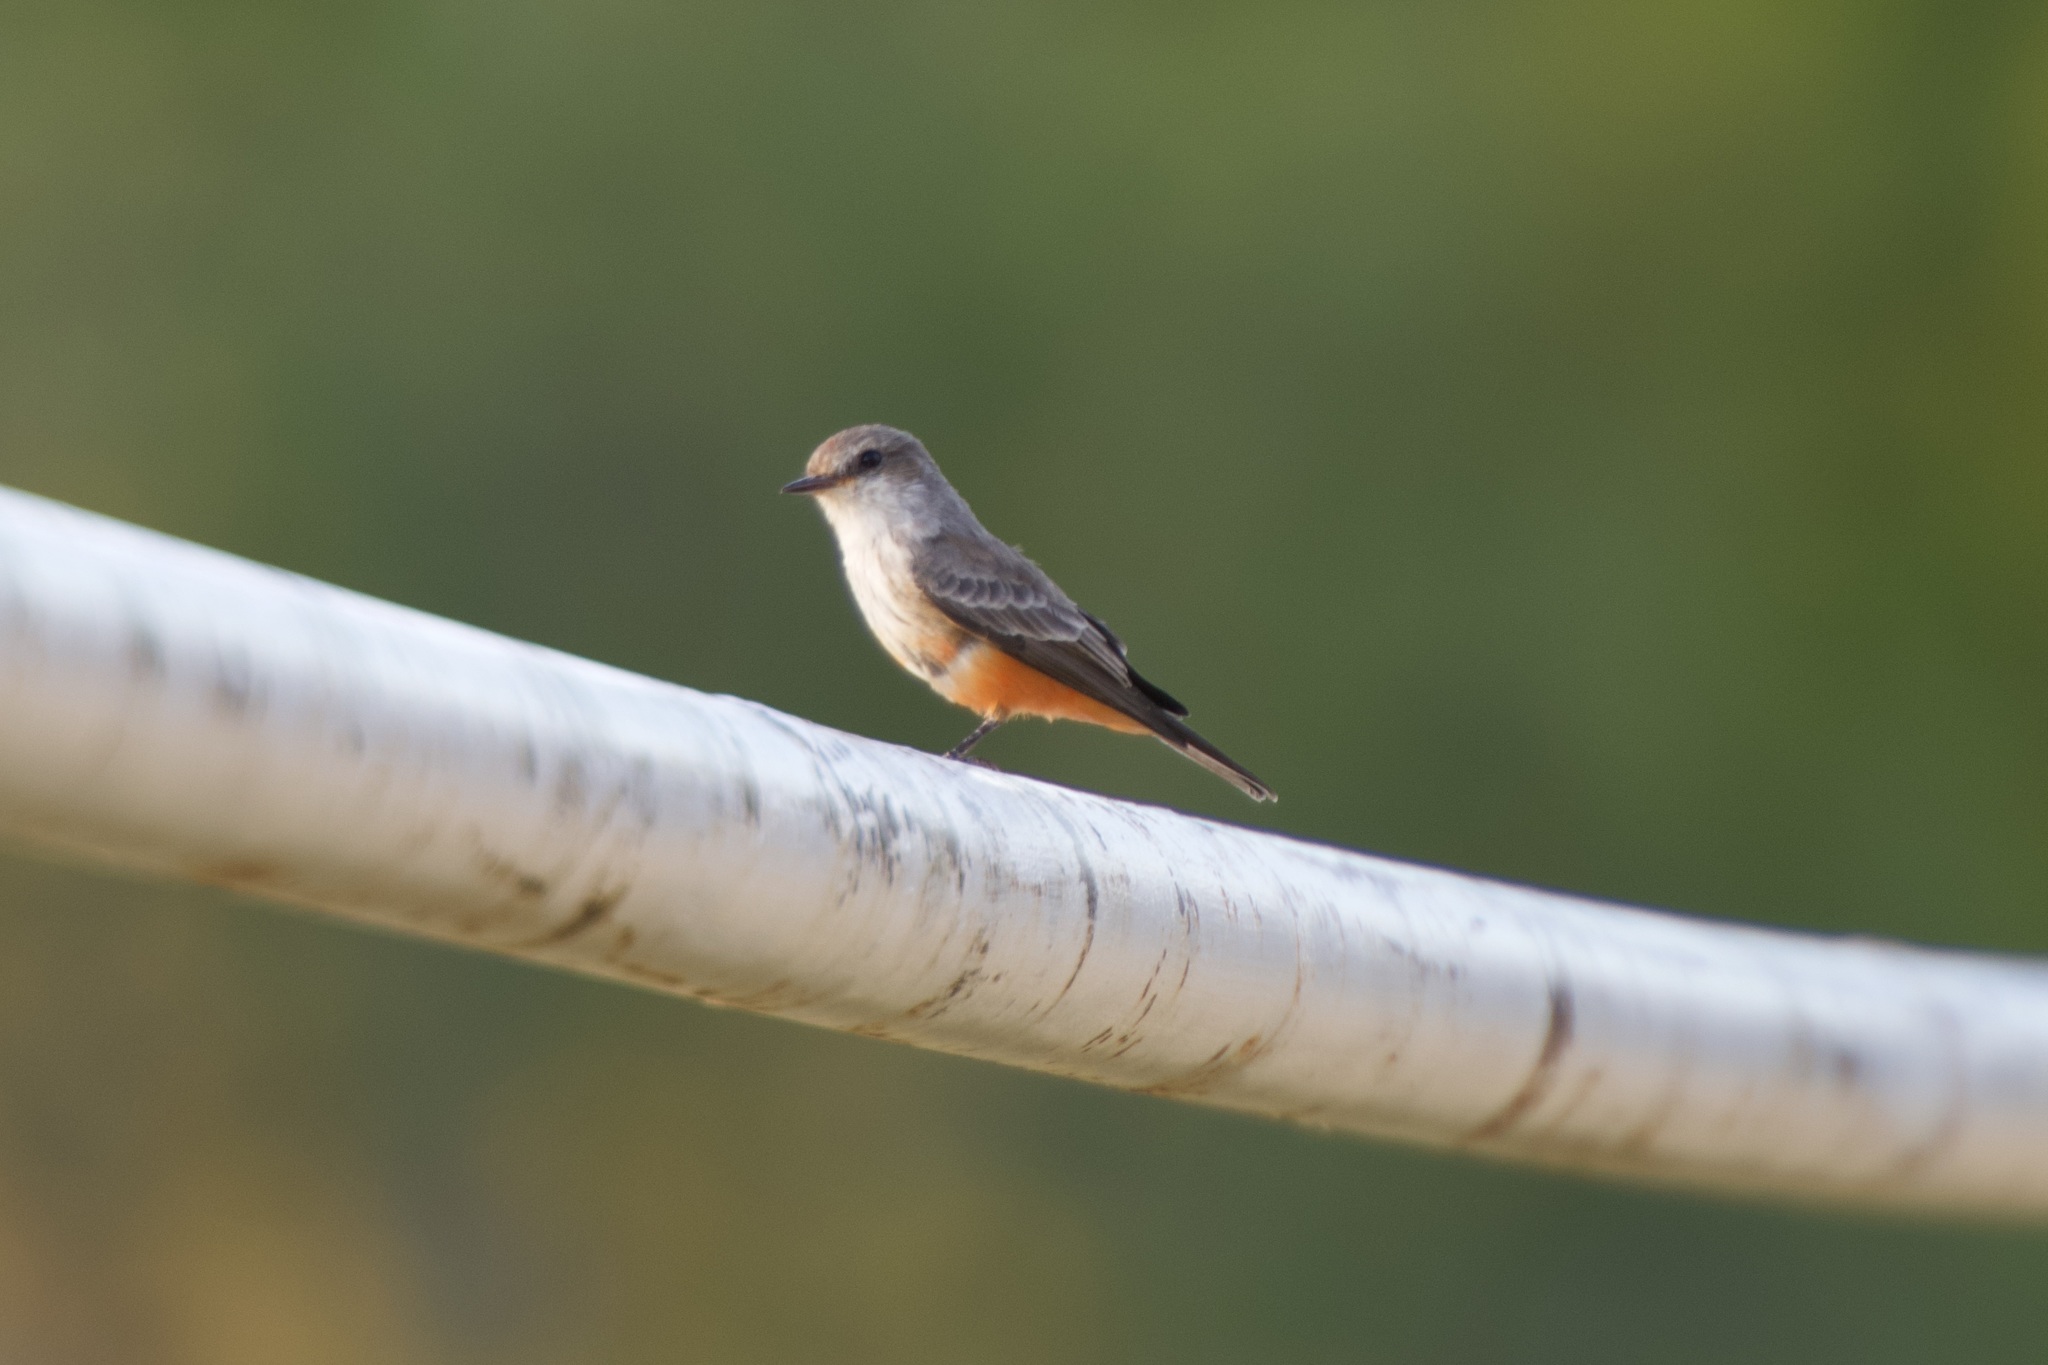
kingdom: Animalia
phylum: Chordata
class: Aves
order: Passeriformes
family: Tyrannidae
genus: Pyrocephalus
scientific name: Pyrocephalus rubinus
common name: Vermilion flycatcher
